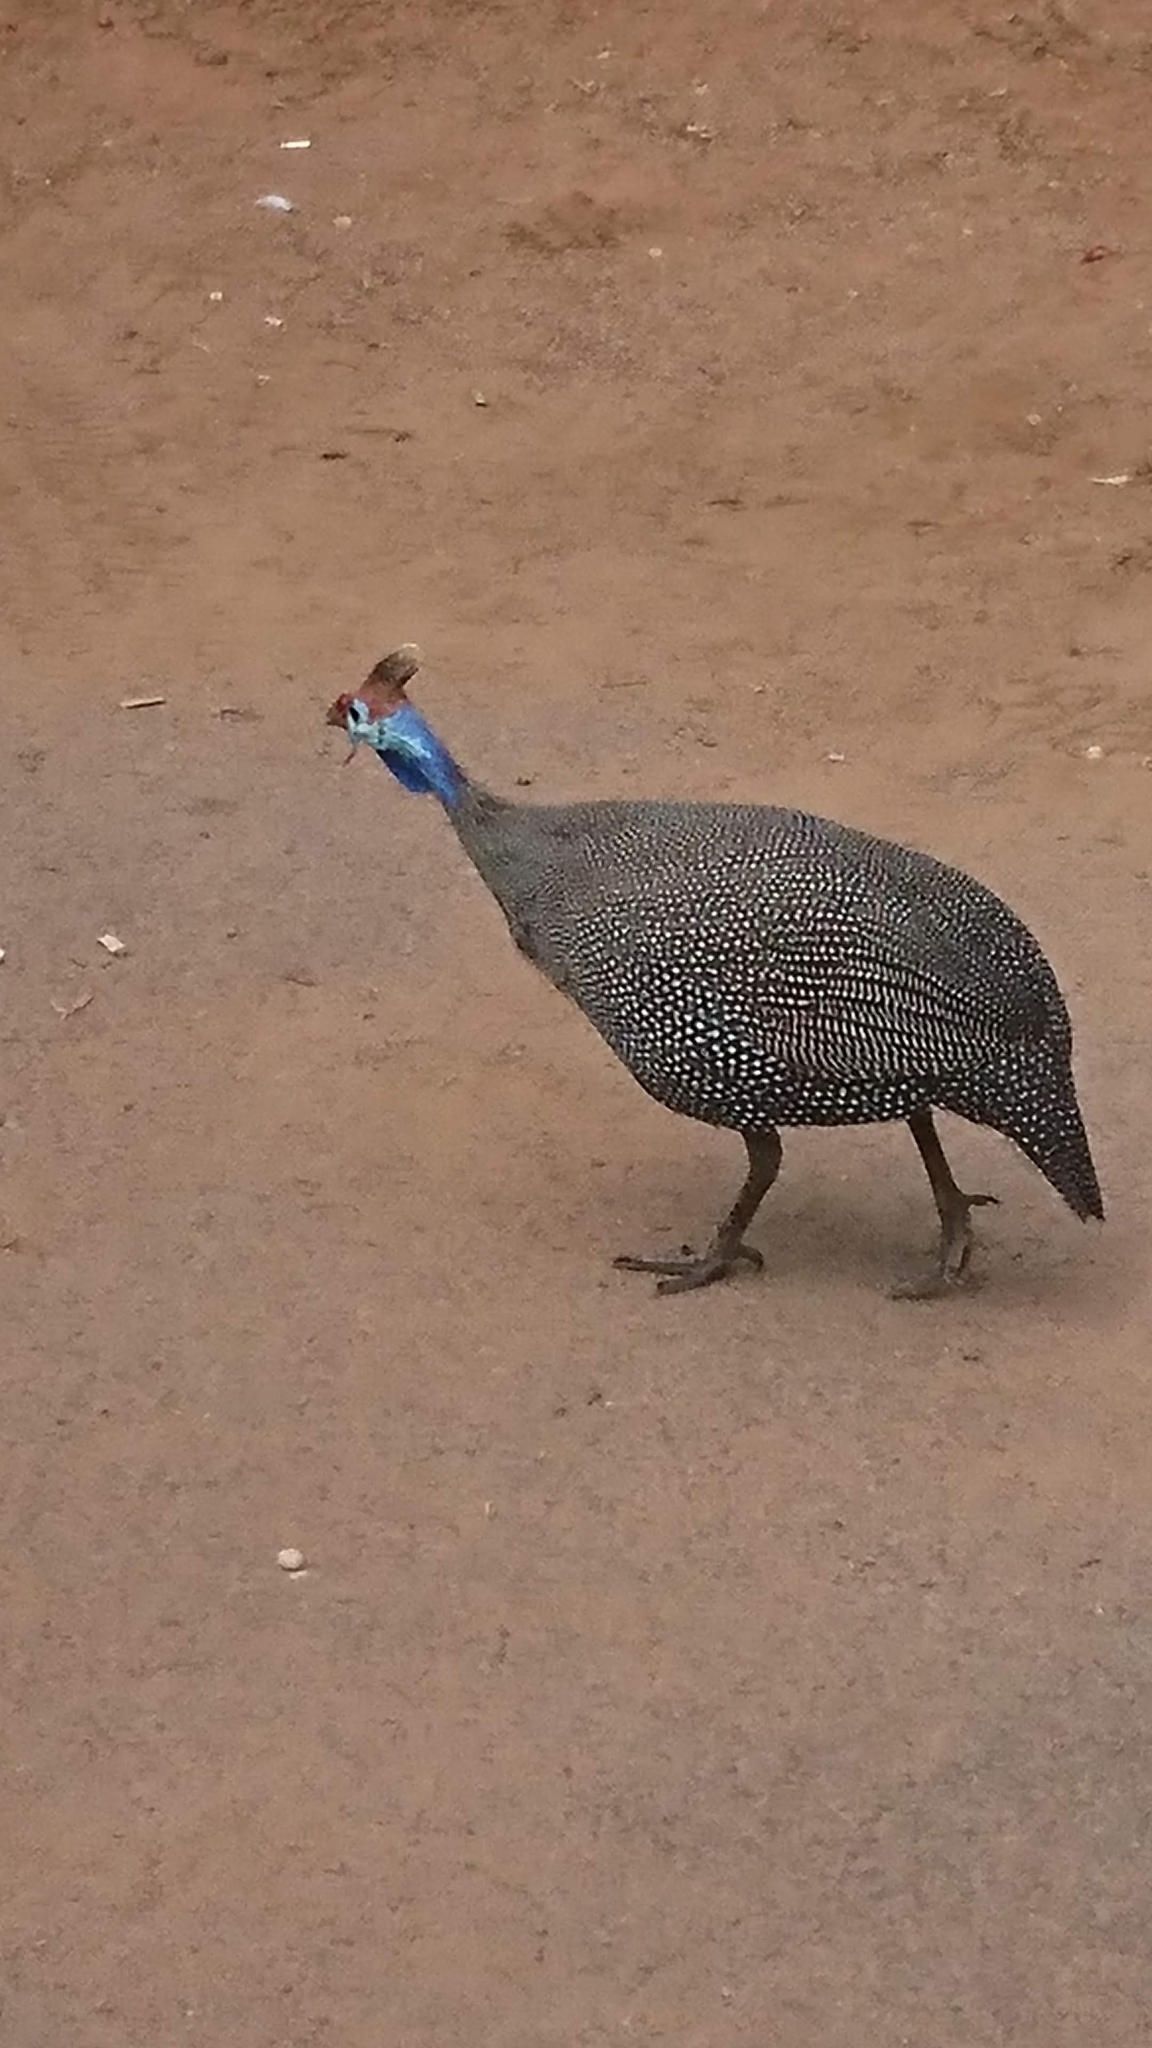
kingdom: Animalia
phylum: Chordata
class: Aves
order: Galliformes
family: Numididae
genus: Numida
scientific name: Numida meleagris
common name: Helmeted guineafowl
